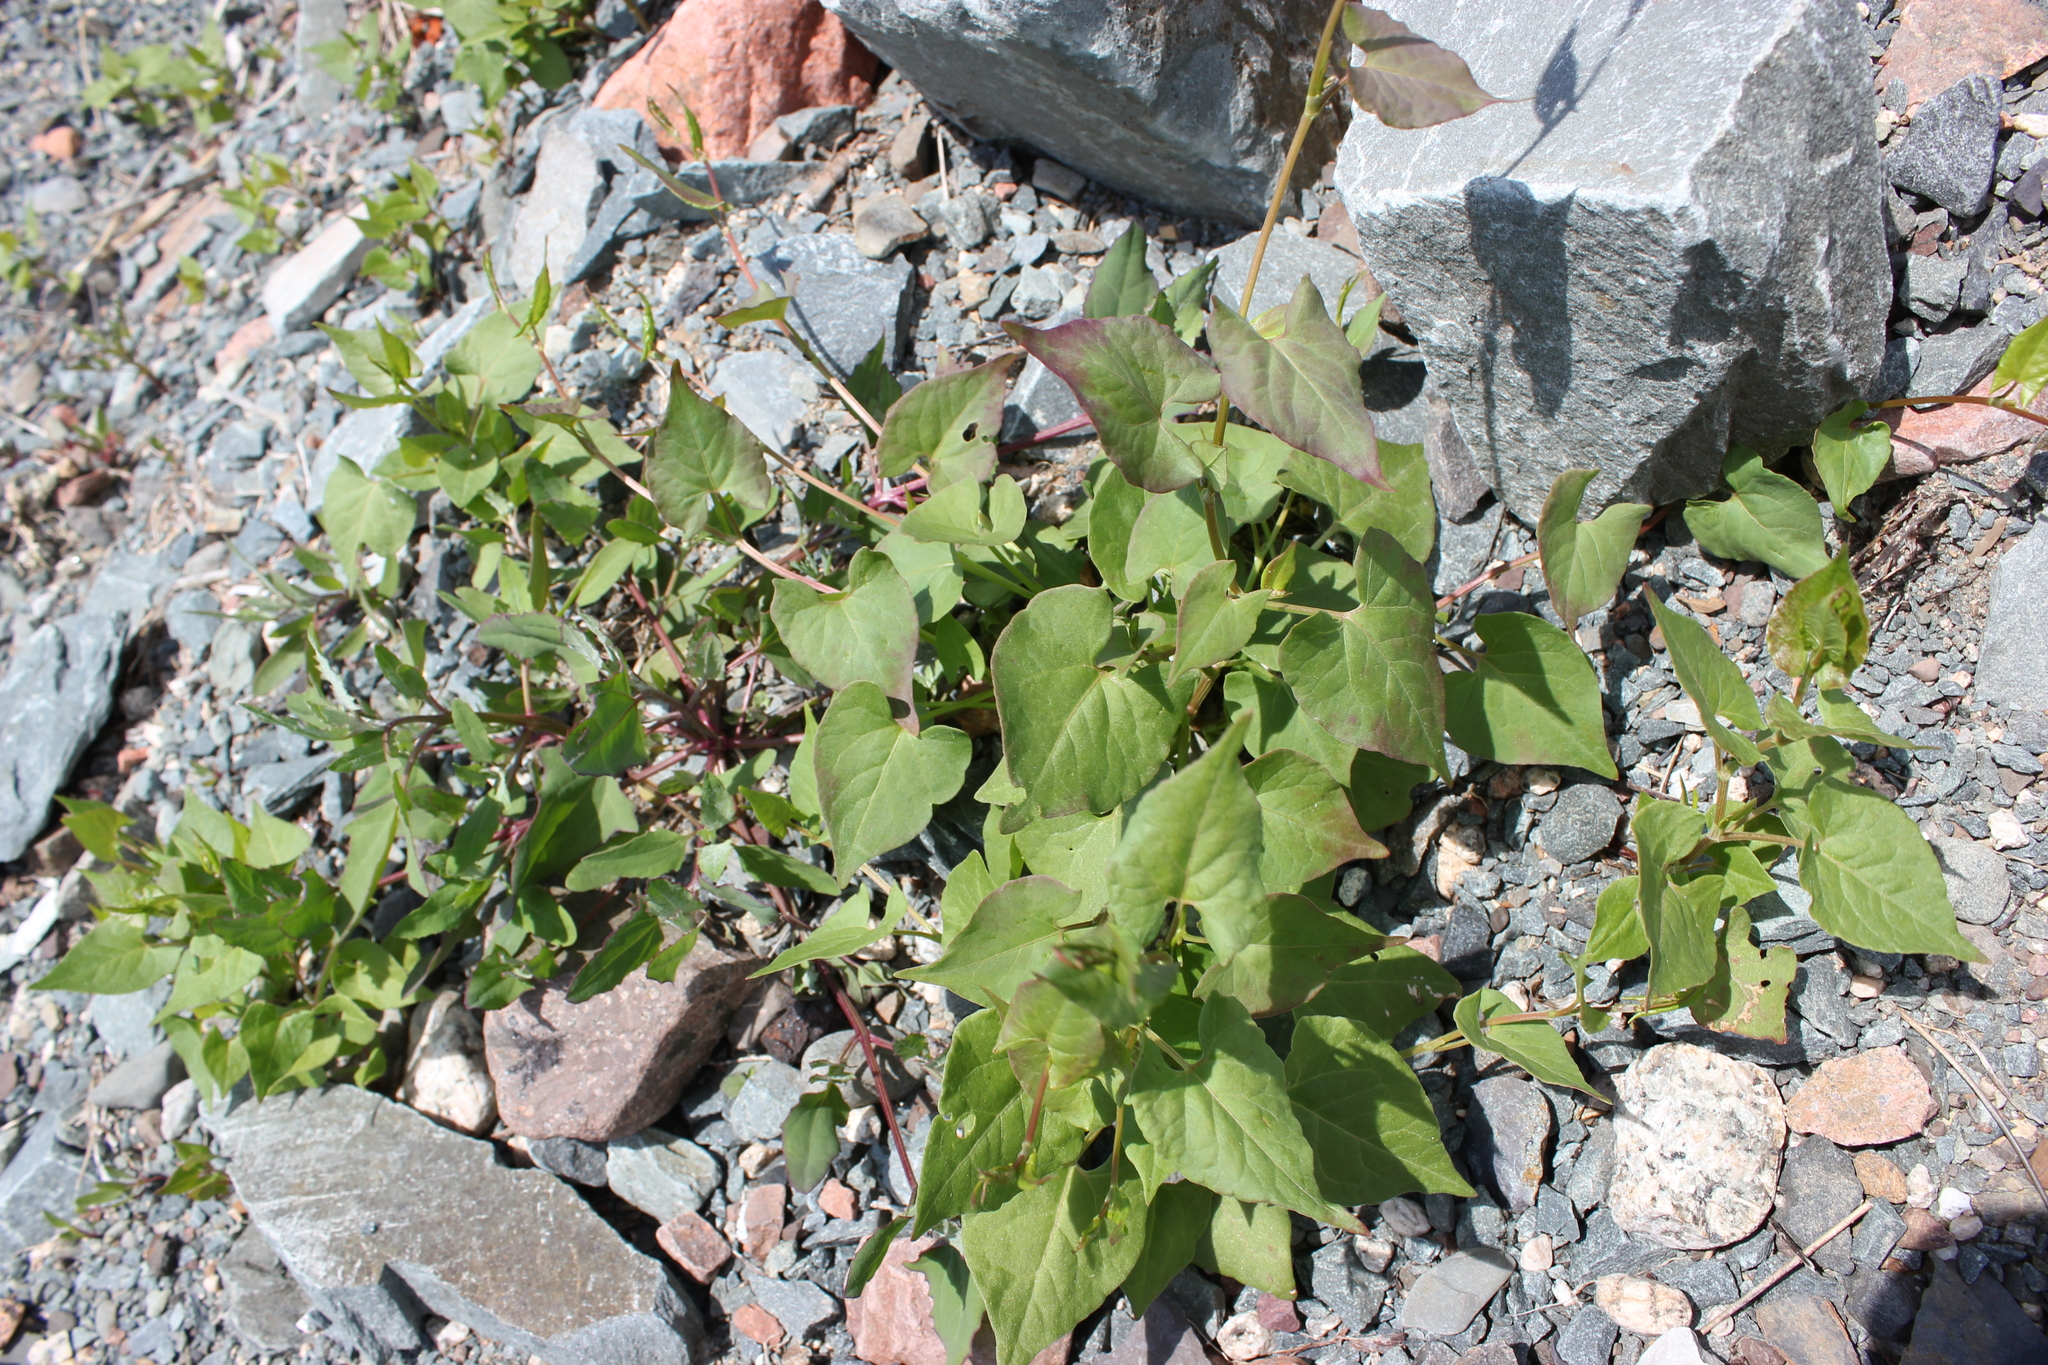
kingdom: Plantae
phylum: Tracheophyta
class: Magnoliopsida
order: Caryophyllales
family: Polygonaceae
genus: Fallopia
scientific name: Fallopia convolvulus
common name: Black bindweed
